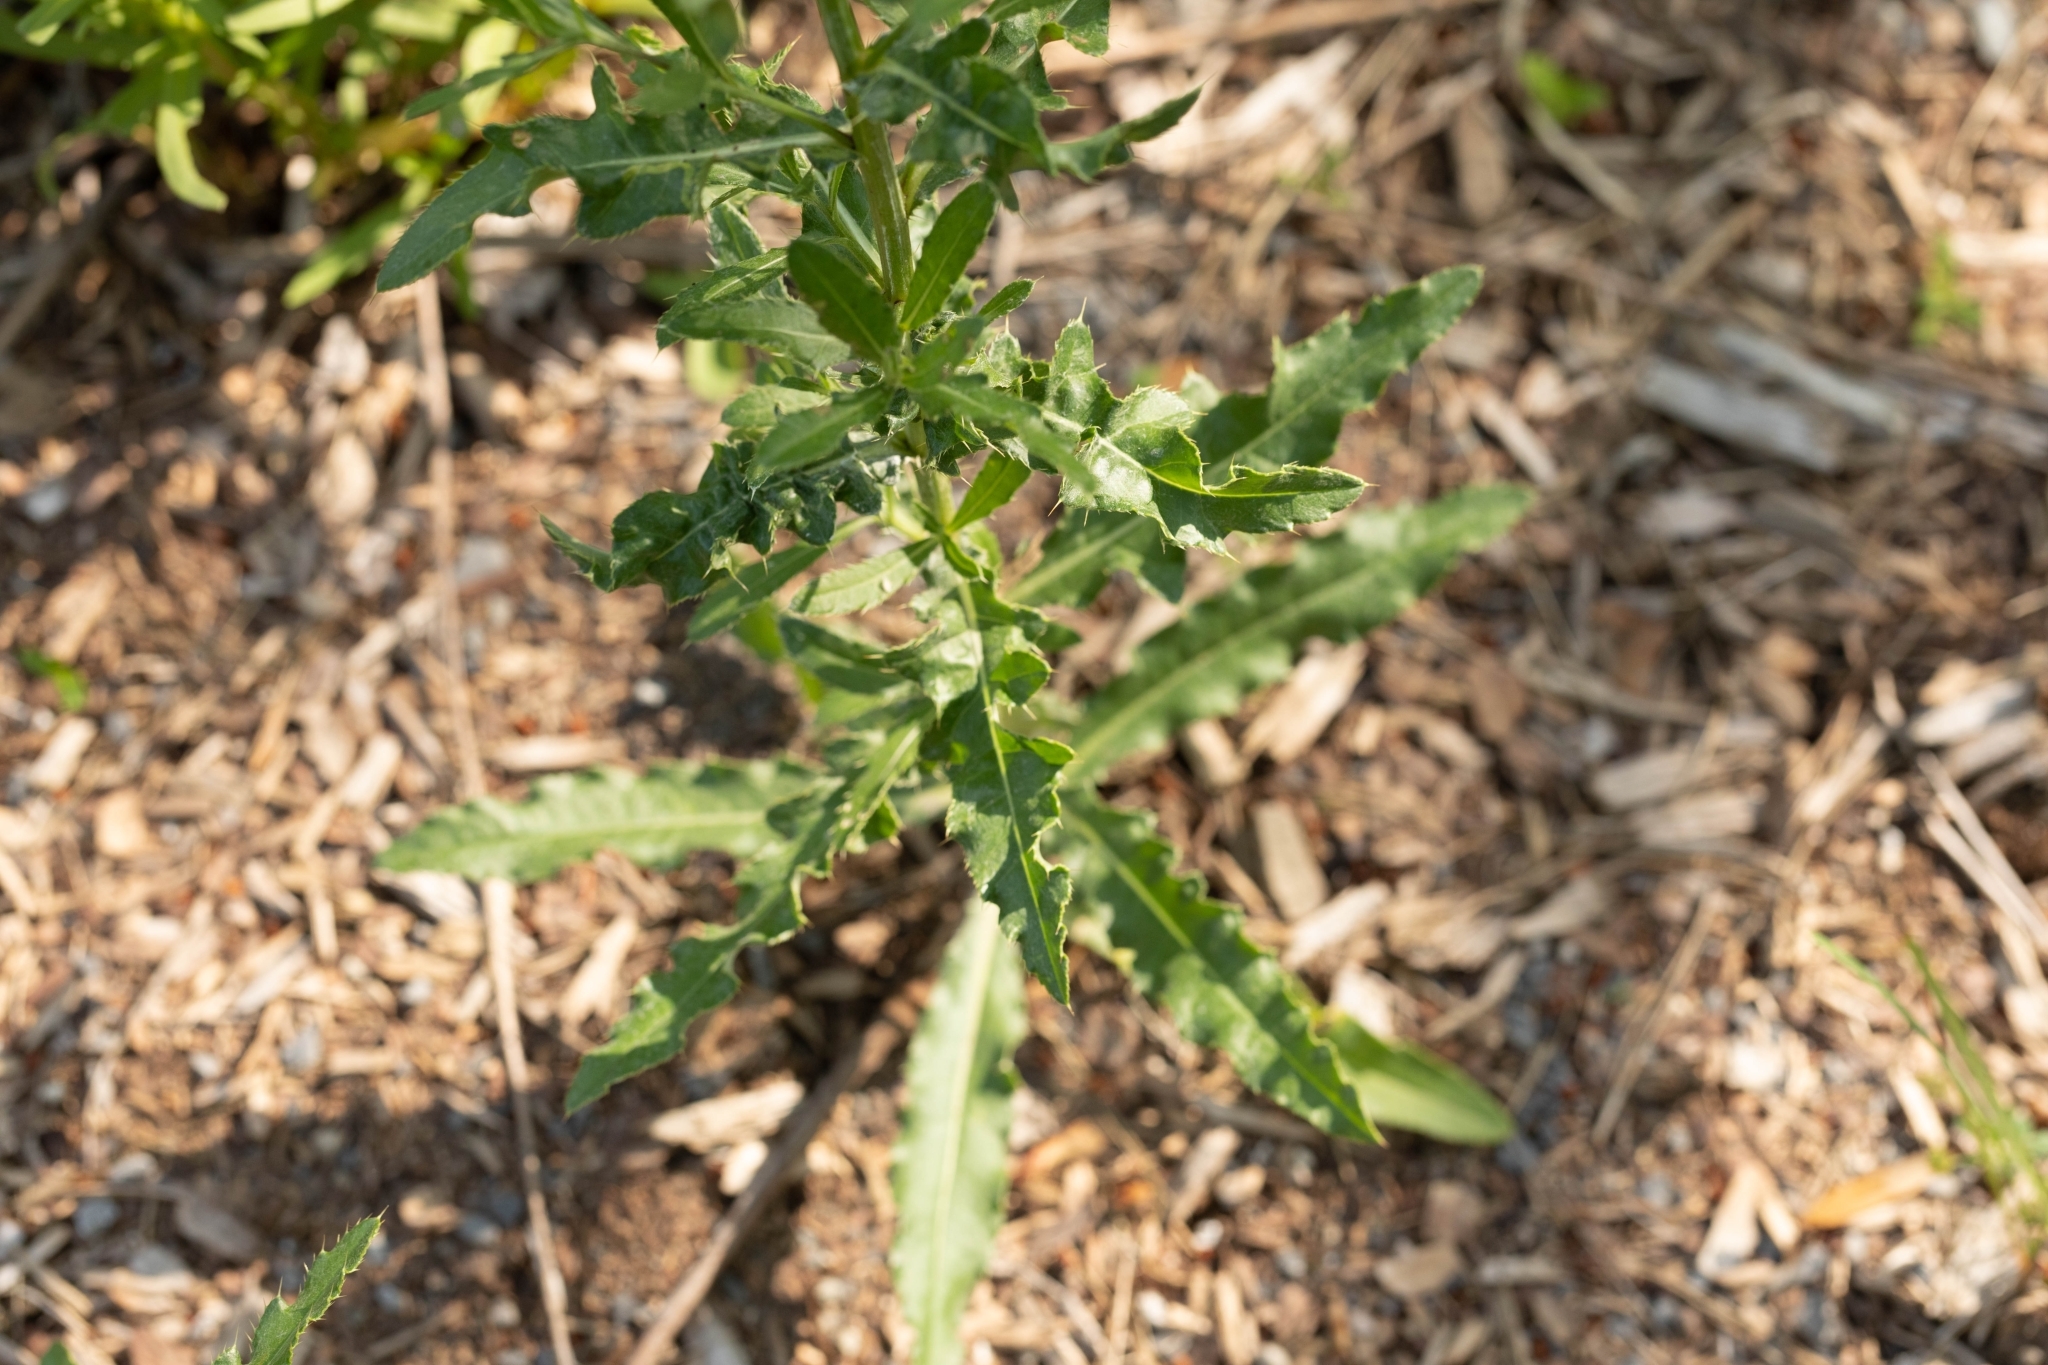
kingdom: Plantae
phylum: Tracheophyta
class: Magnoliopsida
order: Asterales
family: Asteraceae
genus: Cirsium
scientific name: Cirsium arvense
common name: Creeping thistle
